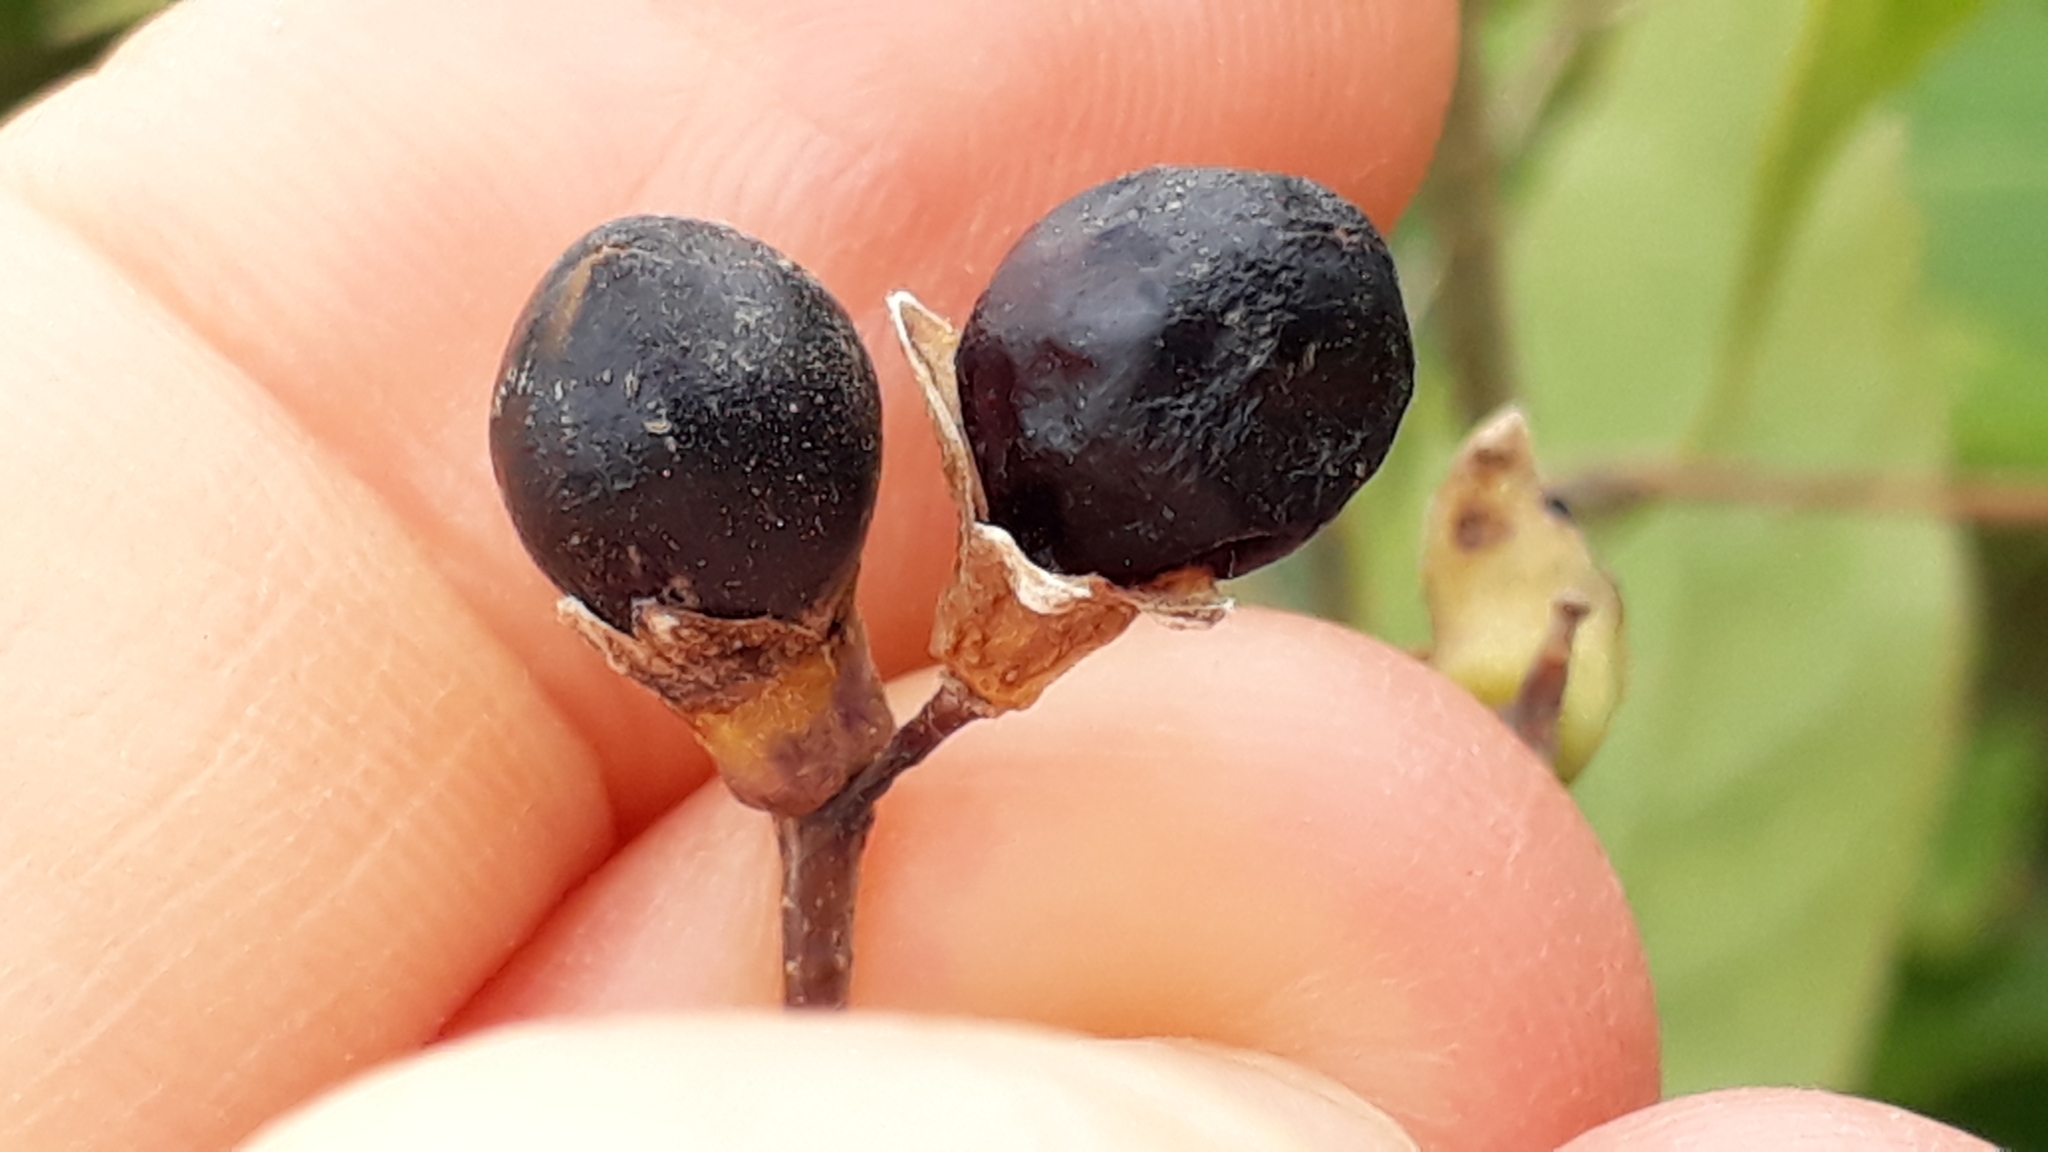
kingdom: Plantae
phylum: Tracheophyta
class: Magnoliopsida
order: Solanales
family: Solanaceae
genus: Cestrum
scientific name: Cestrum parqui
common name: Chilean cestrum
